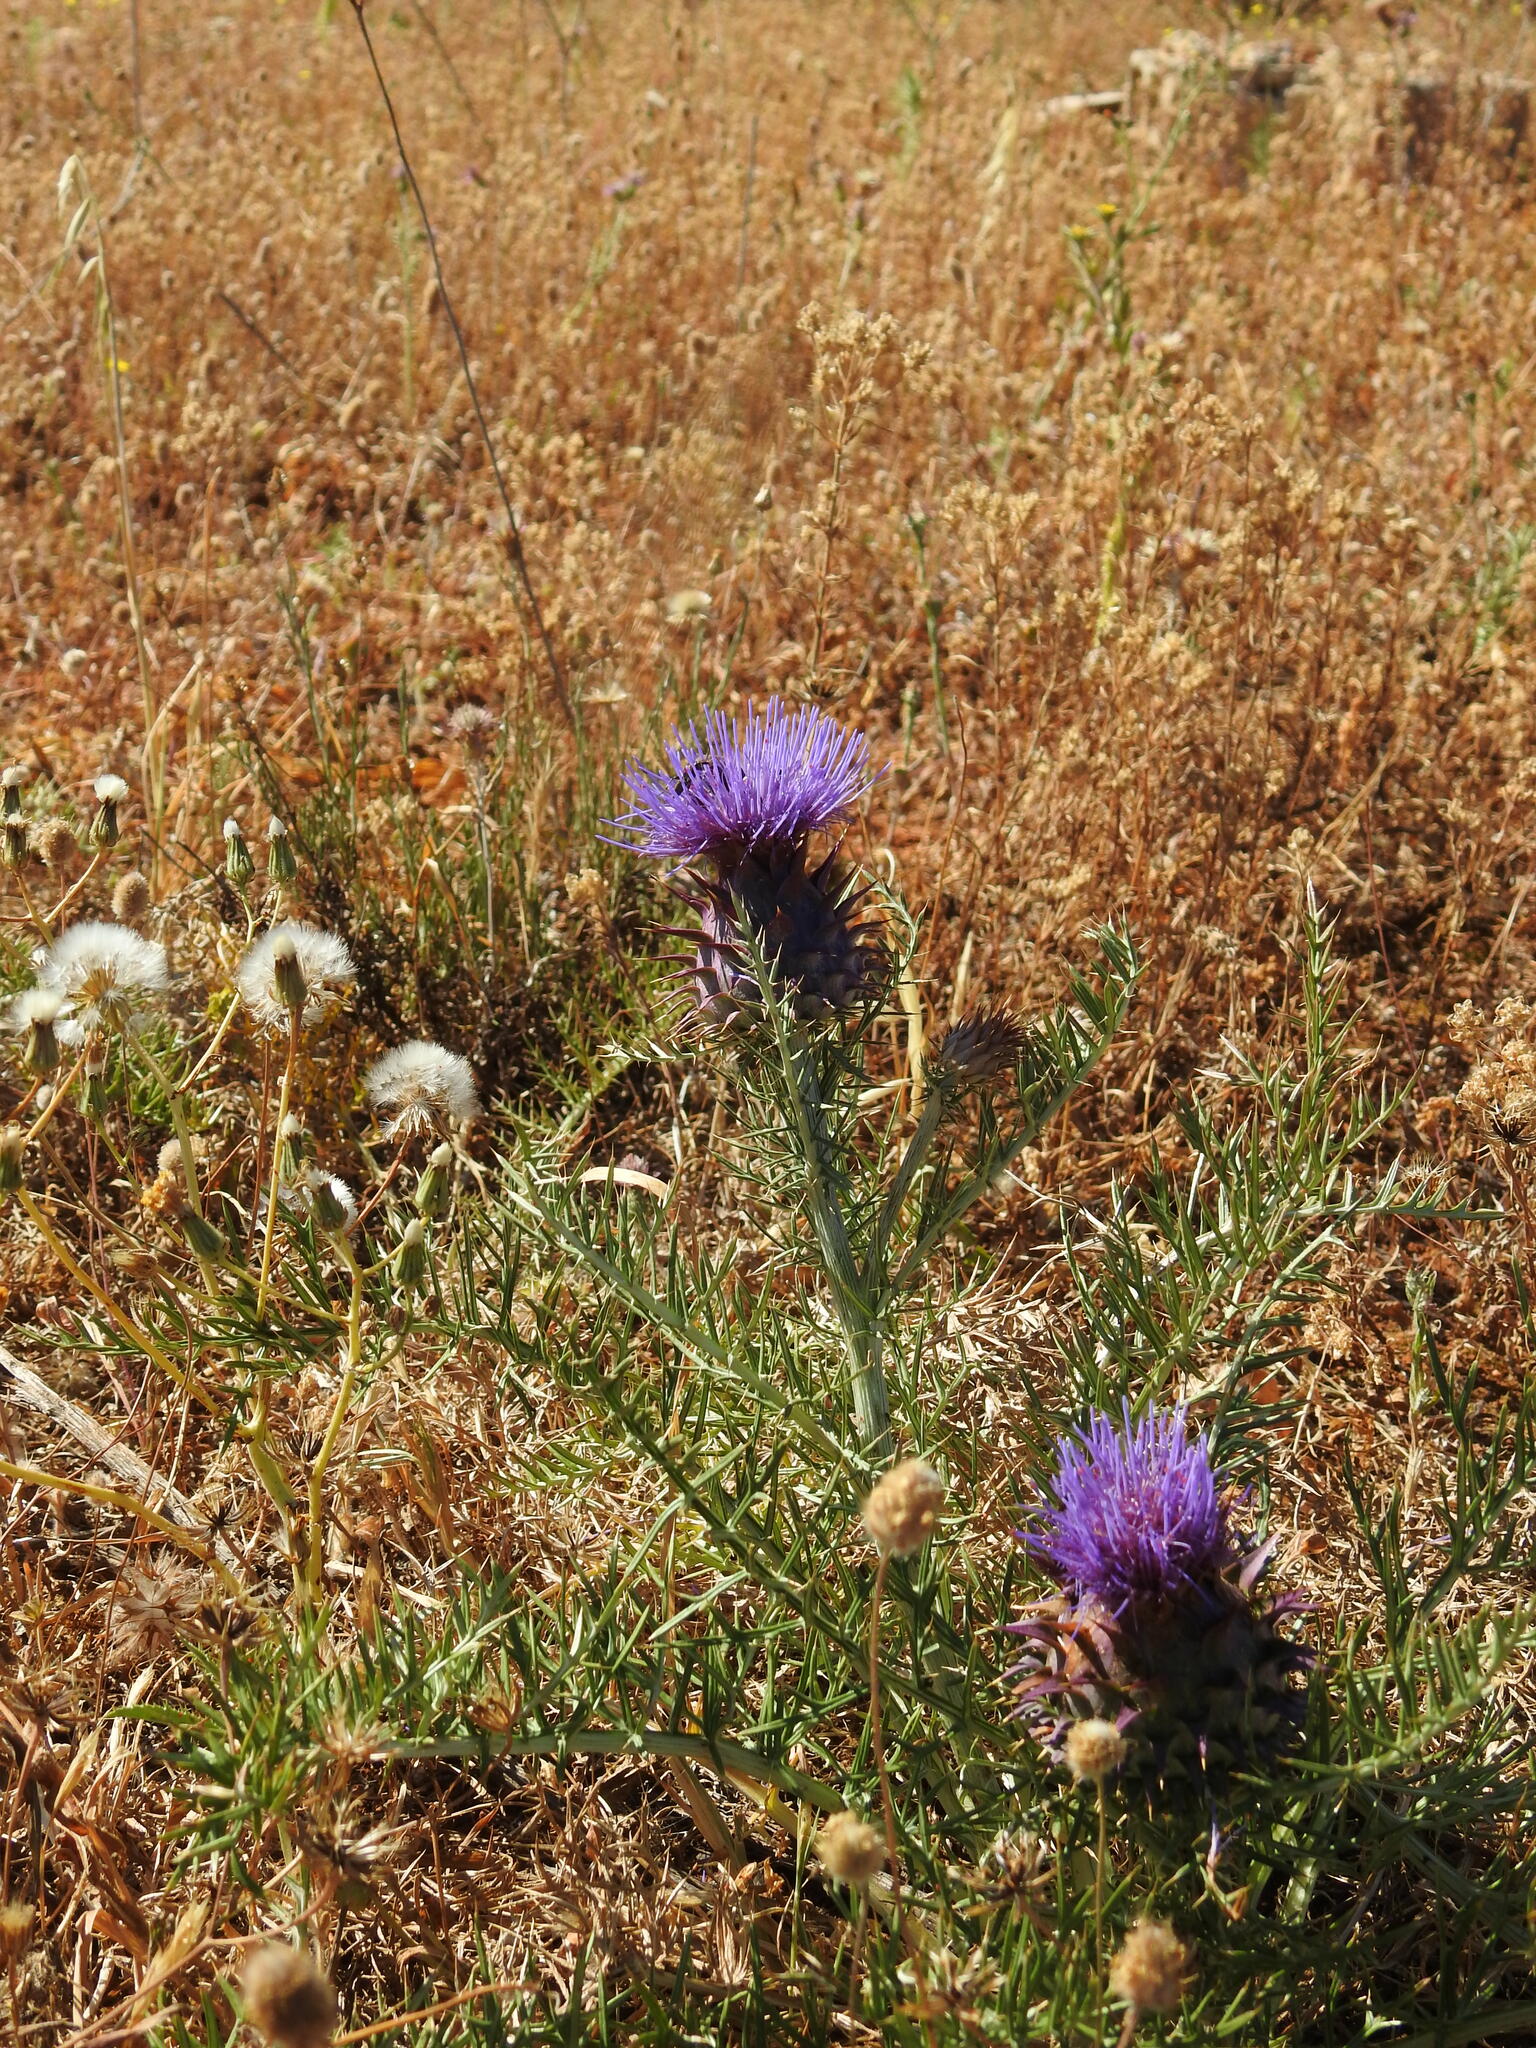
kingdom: Plantae
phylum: Tracheophyta
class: Magnoliopsida
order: Asterales
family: Asteraceae
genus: Cynara
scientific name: Cynara humilis
